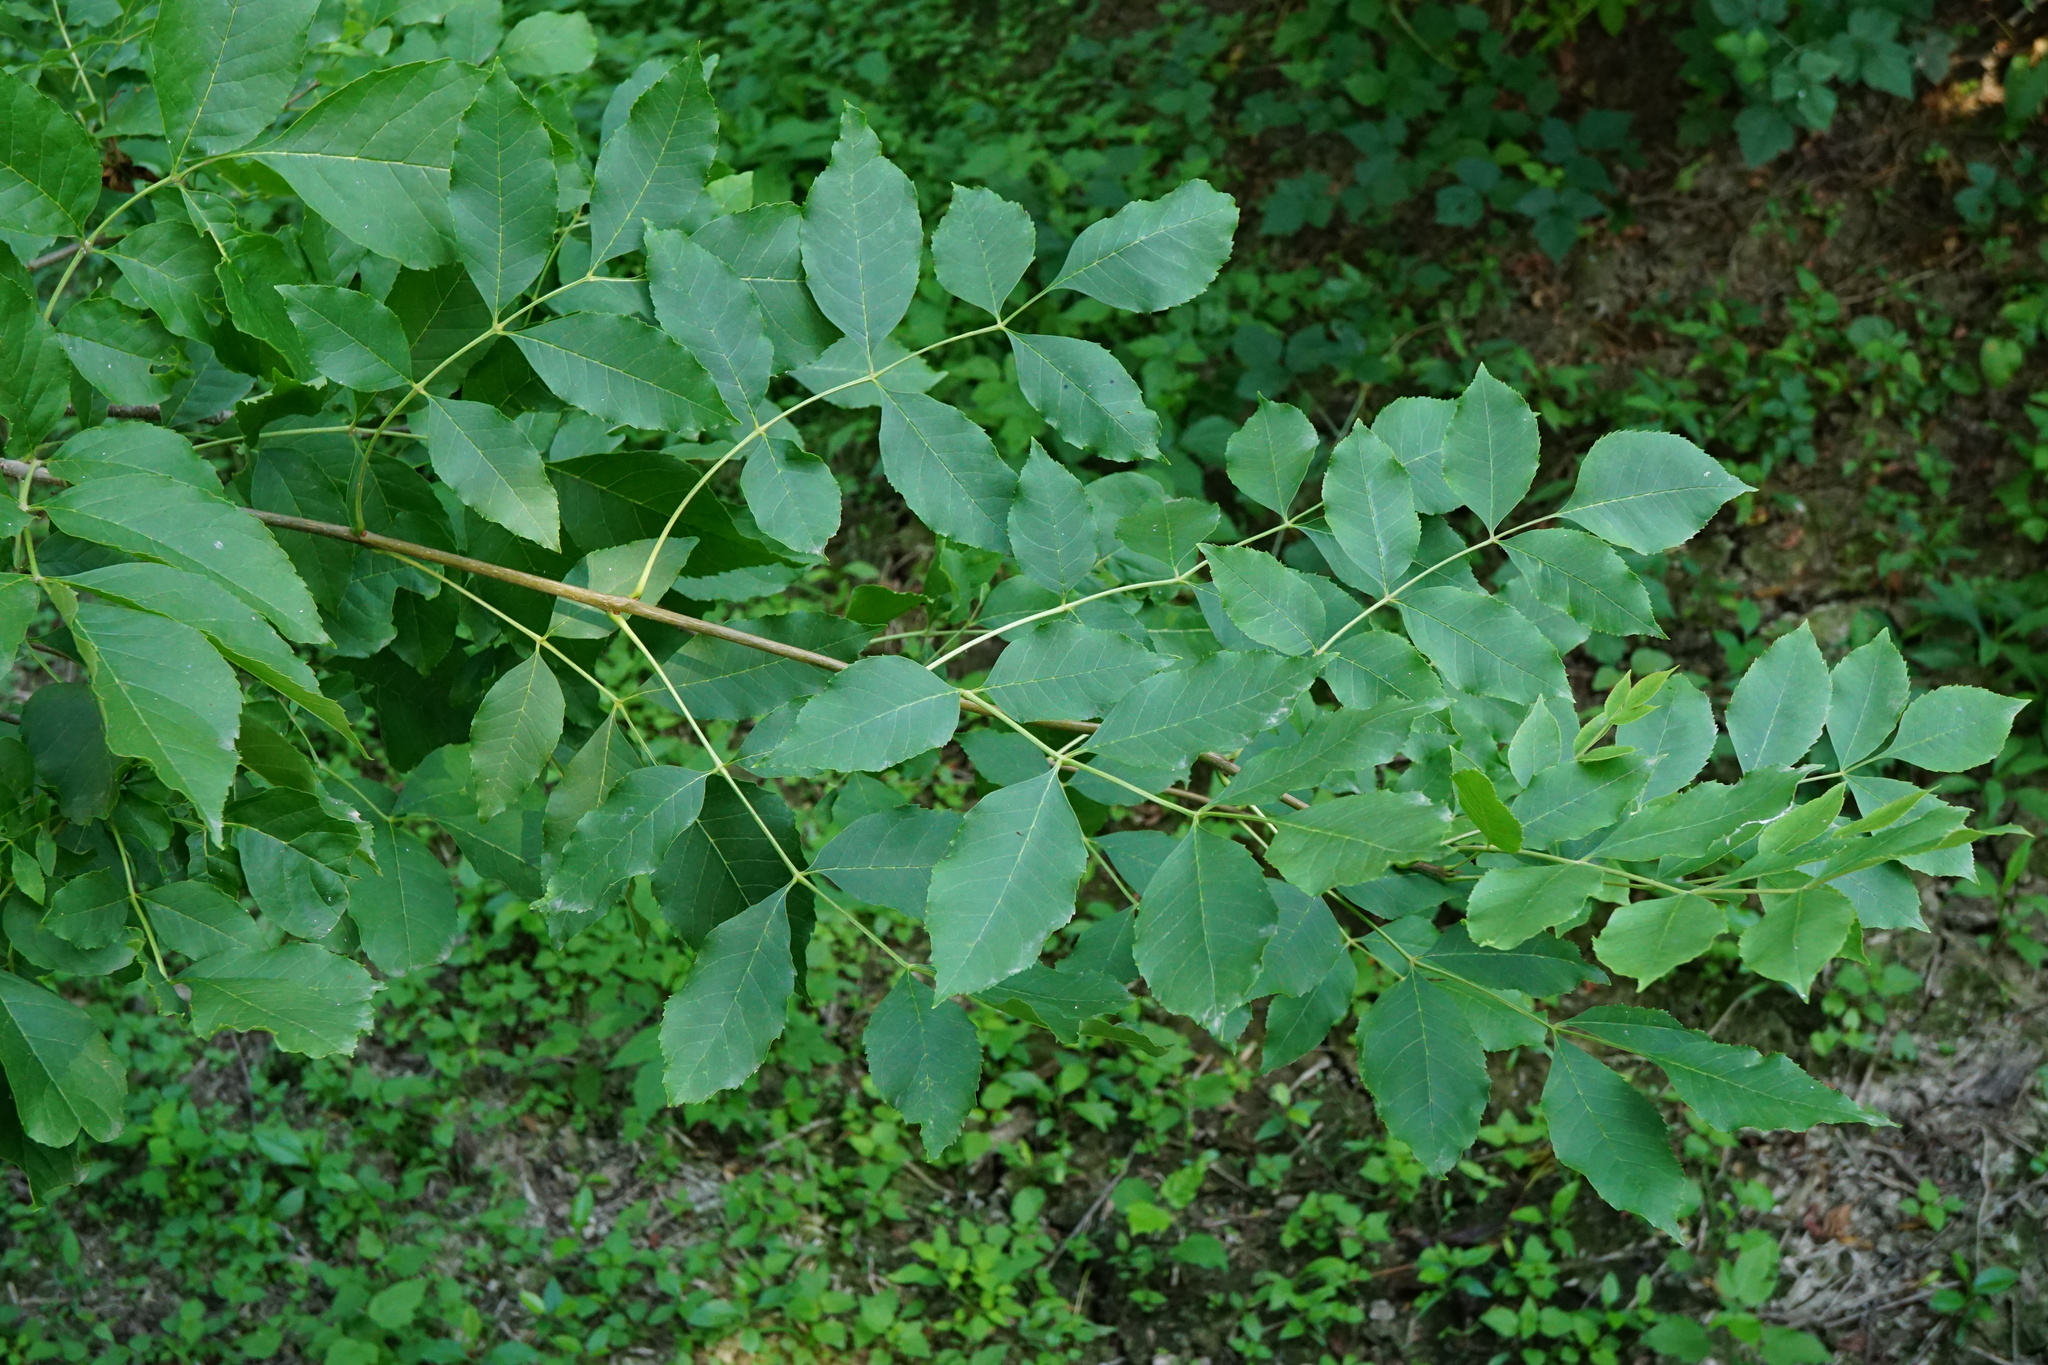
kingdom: Plantae
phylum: Tracheophyta
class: Magnoliopsida
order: Lamiales
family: Oleaceae
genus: Fraxinus
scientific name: Fraxinus pennsylvanica
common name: Green ash
